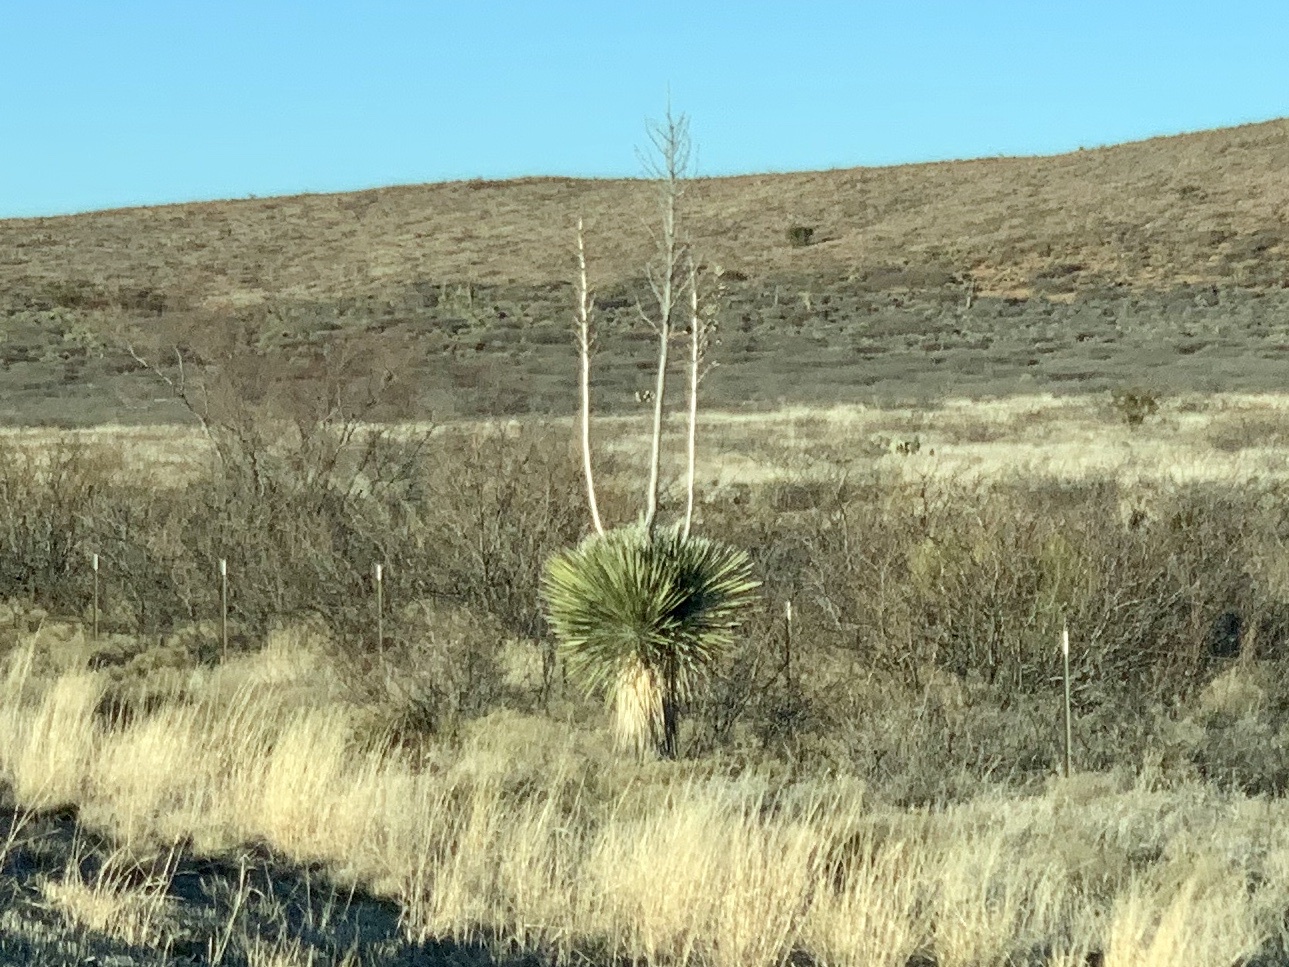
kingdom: Plantae
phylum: Tracheophyta
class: Liliopsida
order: Asparagales
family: Asparagaceae
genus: Yucca
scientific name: Yucca elata
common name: Palmella
